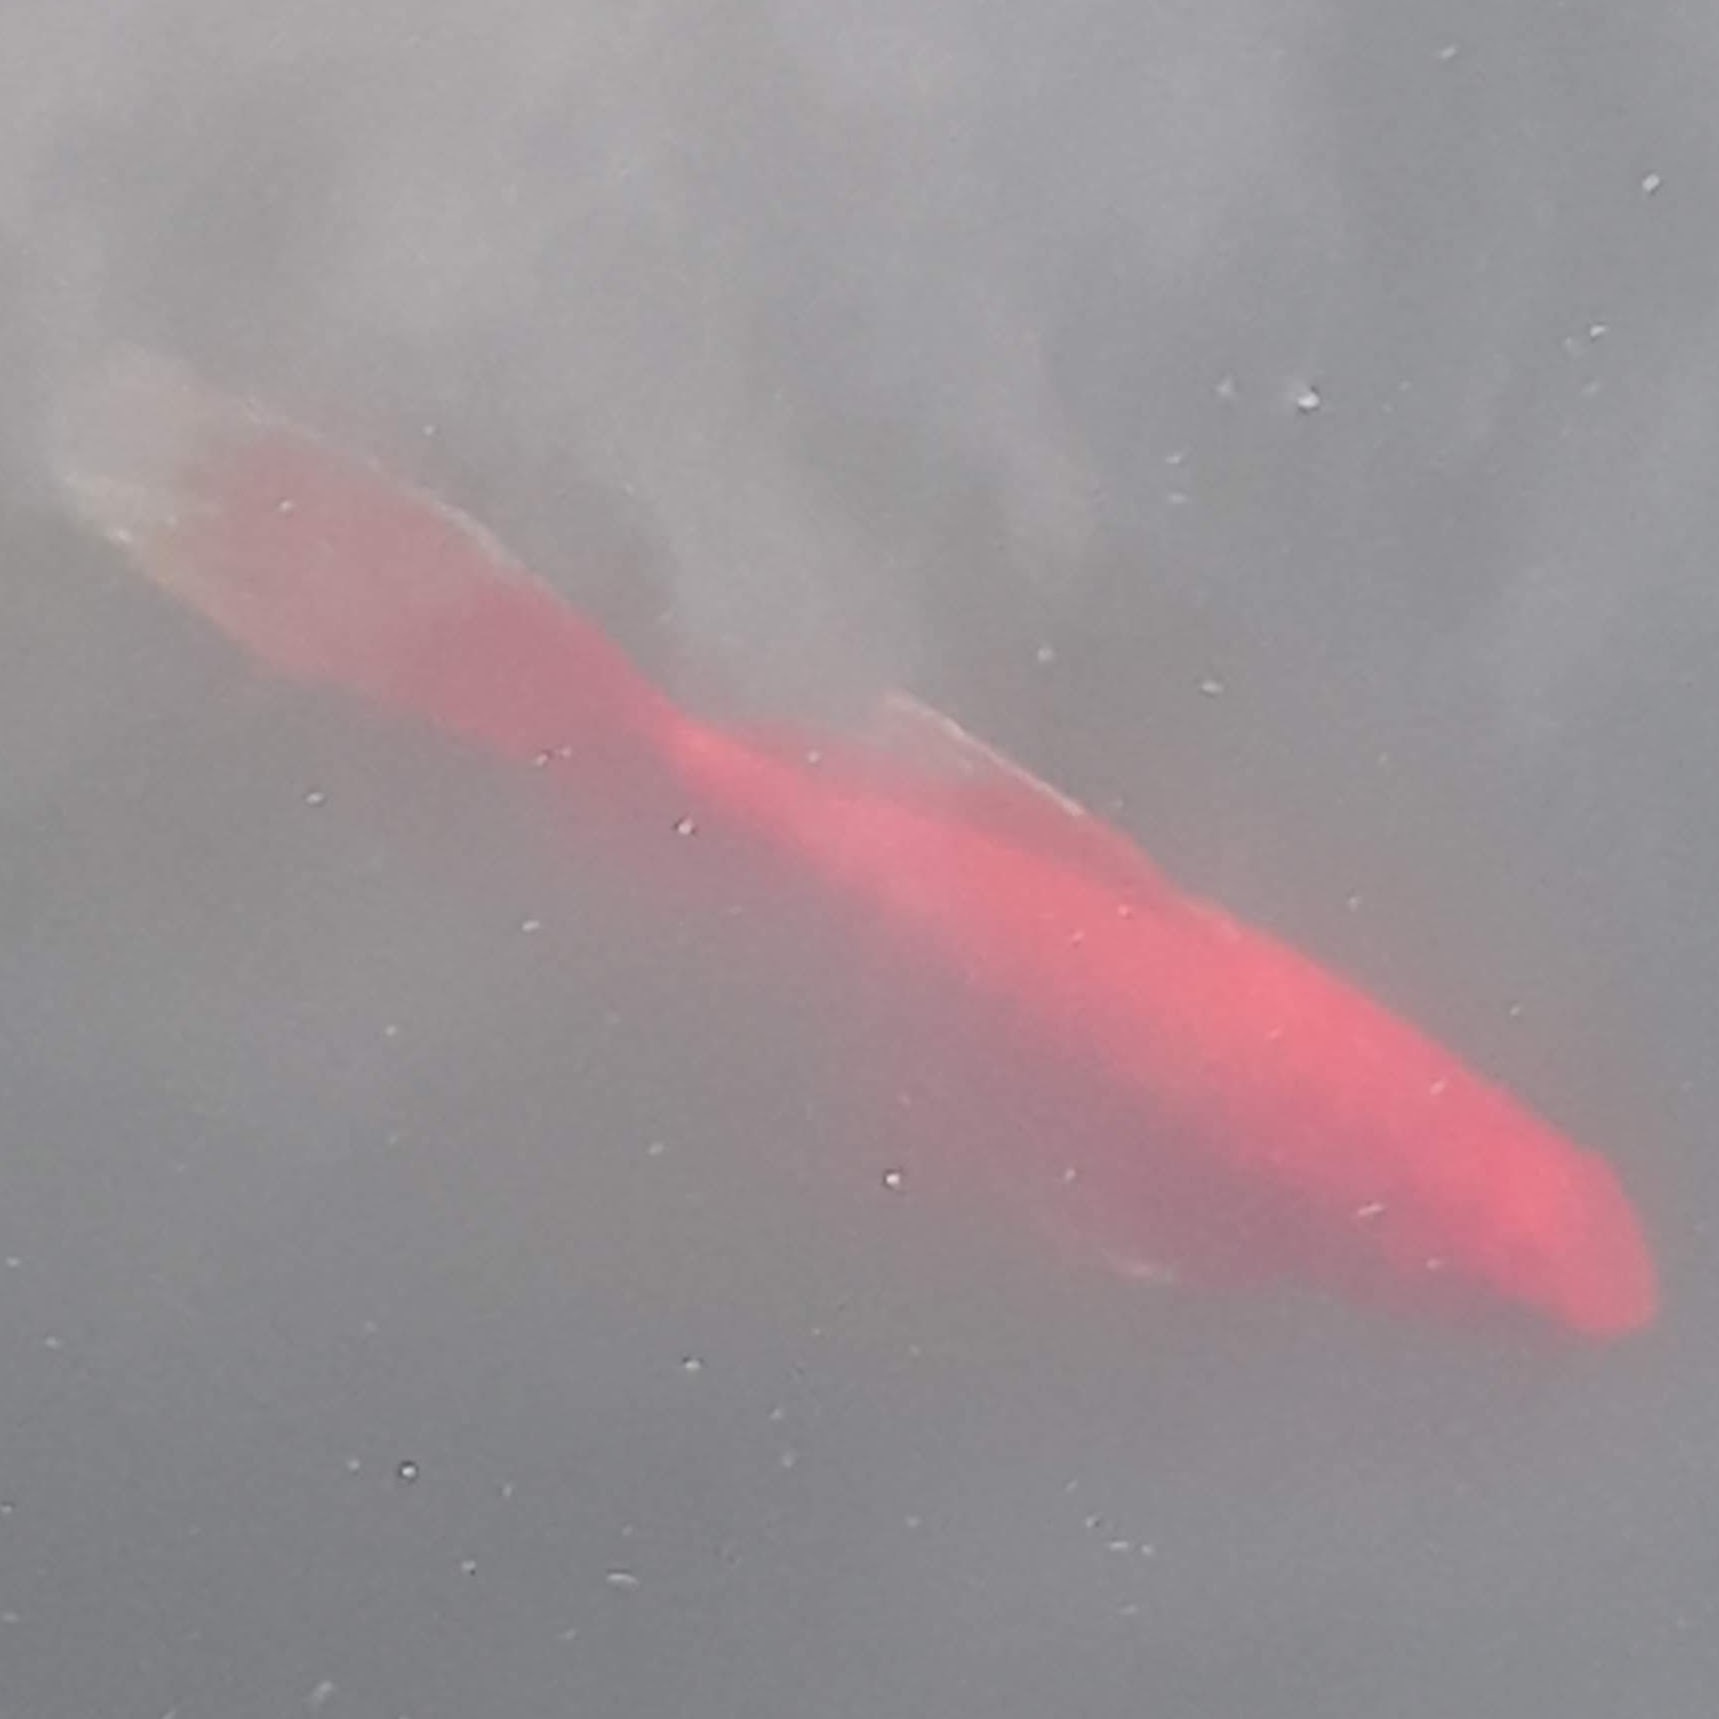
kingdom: Animalia
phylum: Chordata
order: Cypriniformes
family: Cyprinidae
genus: Carassius
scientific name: Carassius auratus
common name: Goldfish
